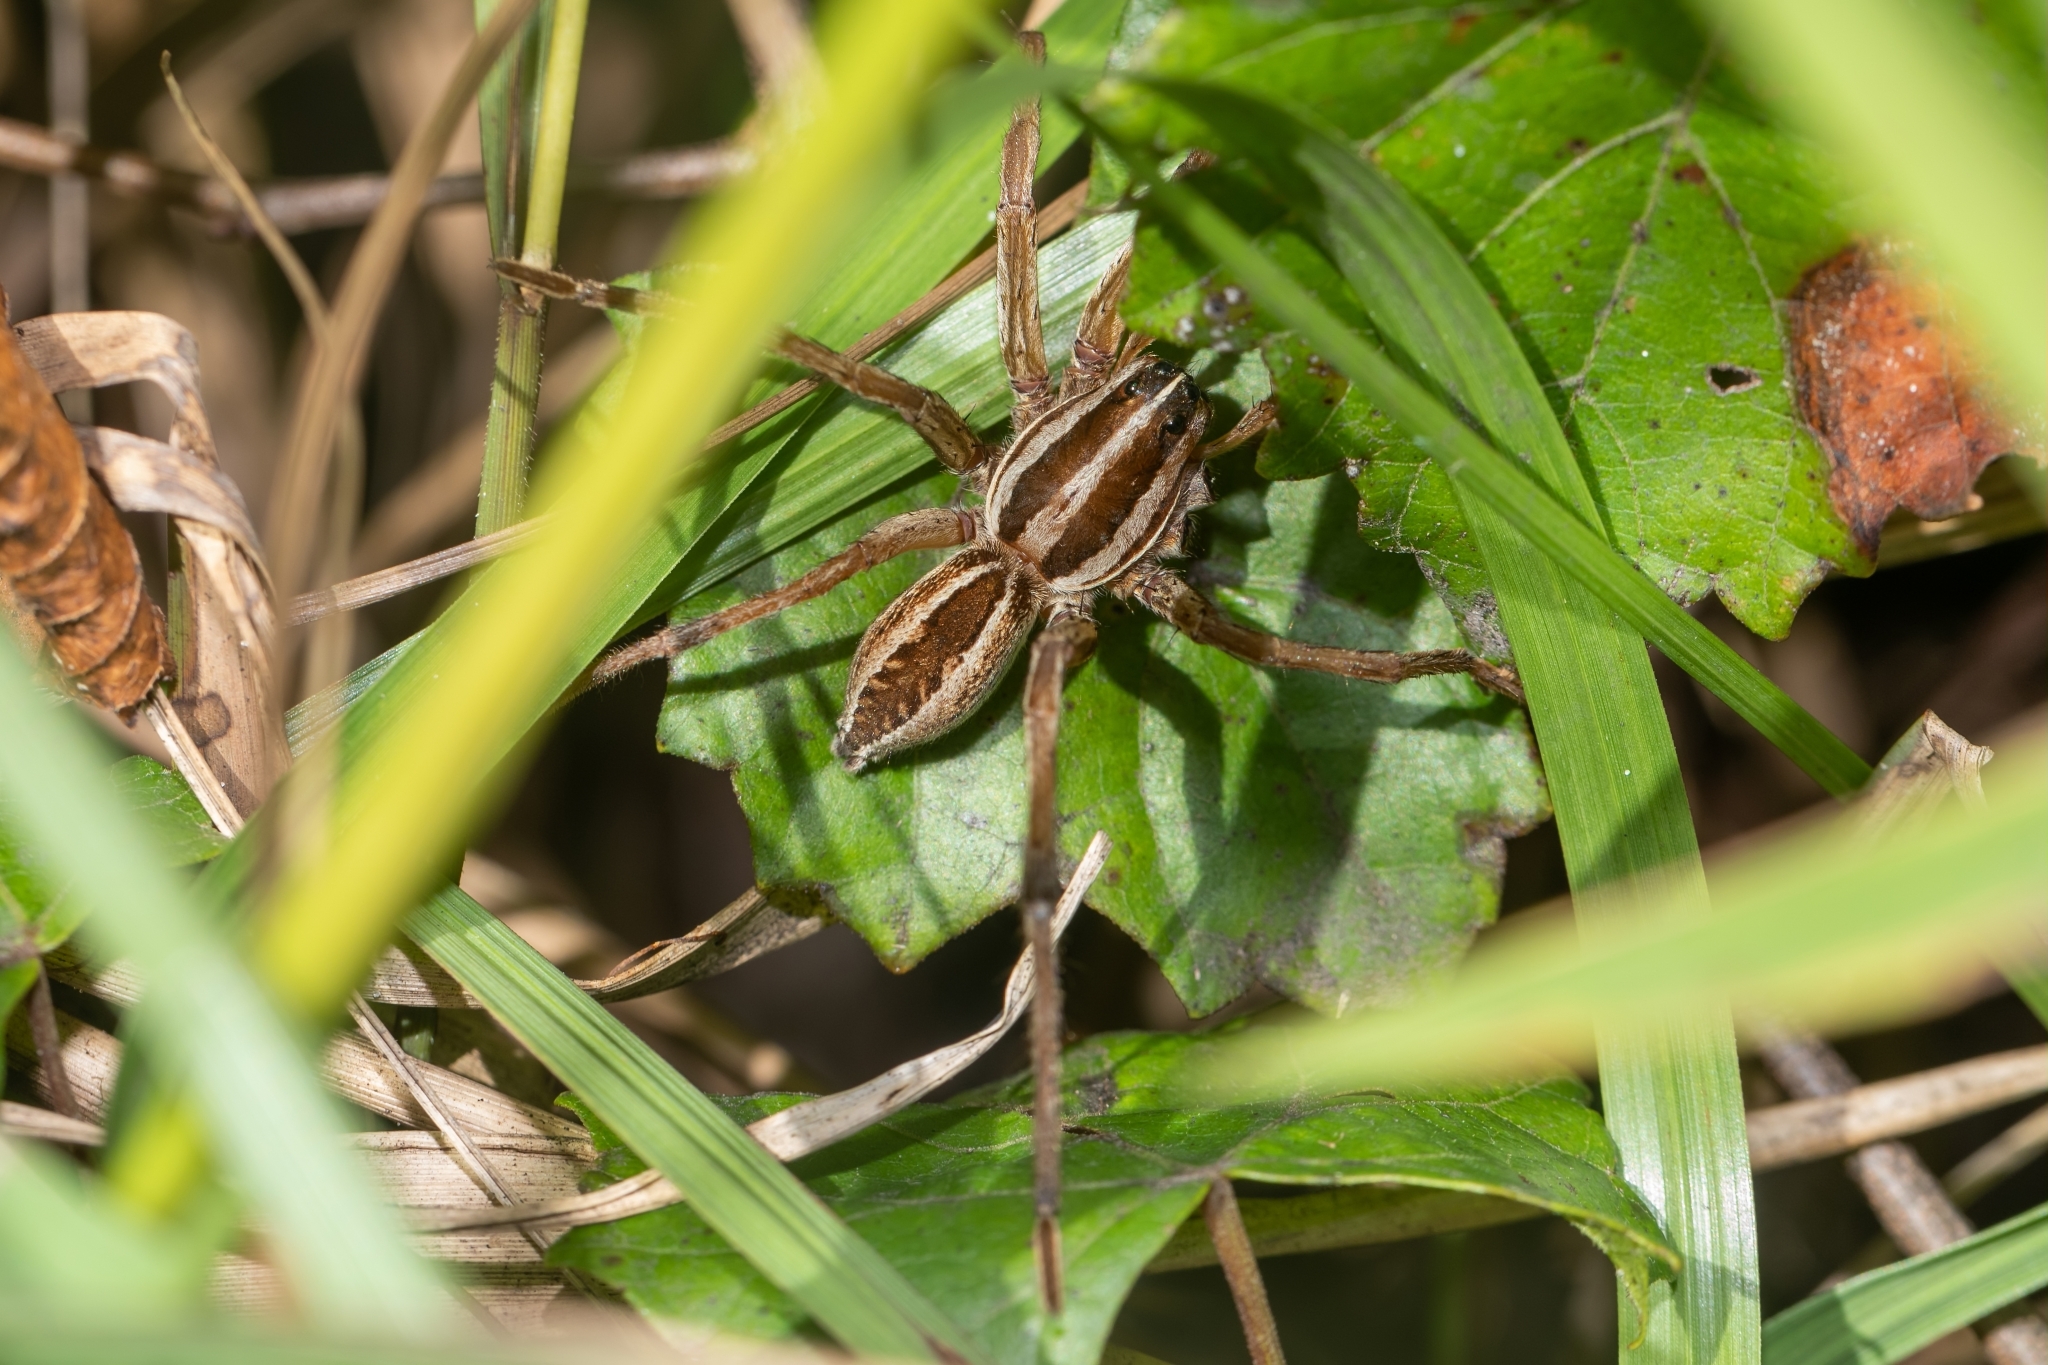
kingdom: Animalia
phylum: Arthropoda
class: Arachnida
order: Araneae
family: Lycosidae
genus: Rabidosa
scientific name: Rabidosa rabida
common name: Rabid wolf spider
